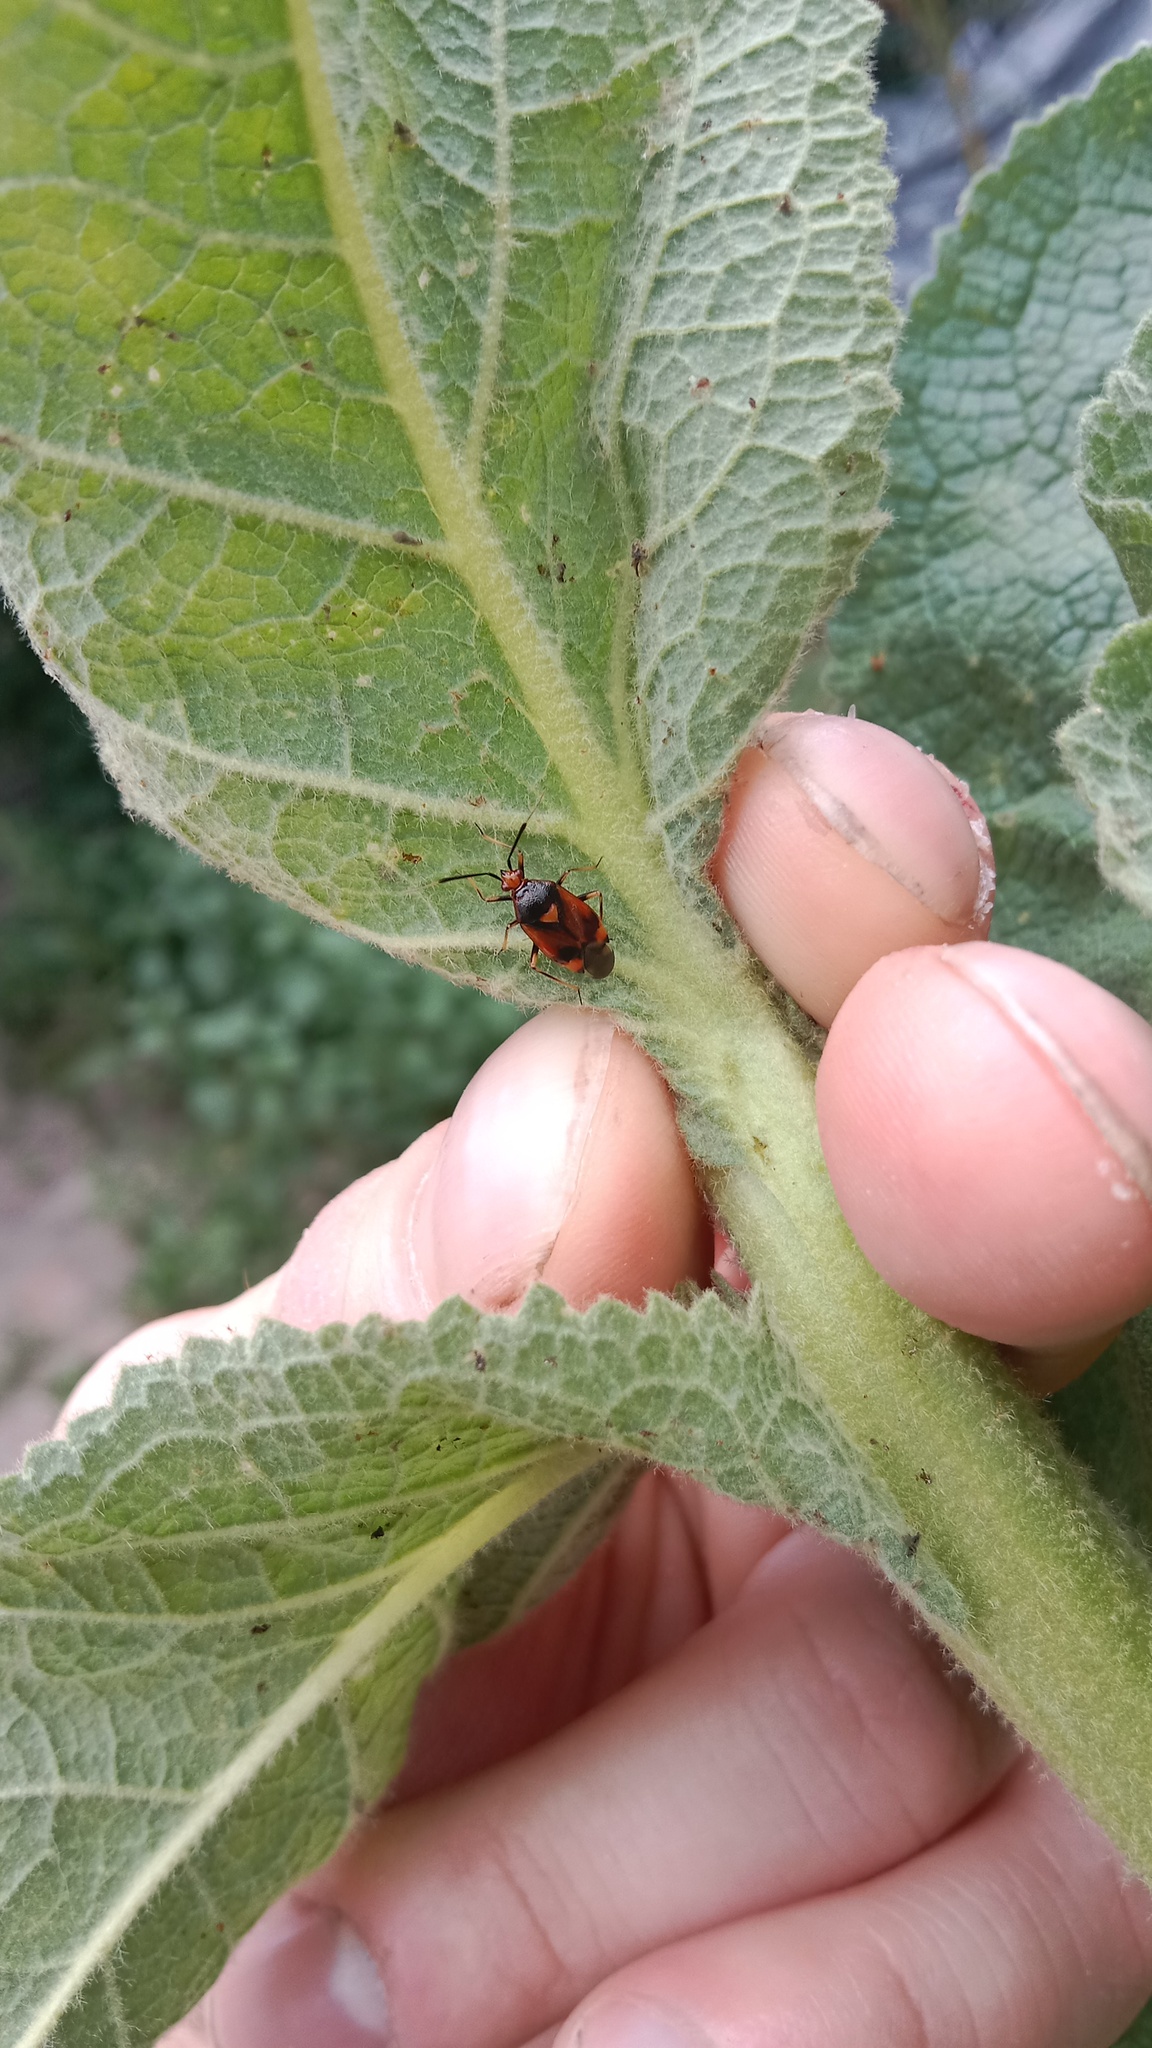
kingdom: Animalia
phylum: Arthropoda
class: Insecta
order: Hemiptera
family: Miridae
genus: Deraeocoris
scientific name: Deraeocoris ruber
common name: Plant bug
